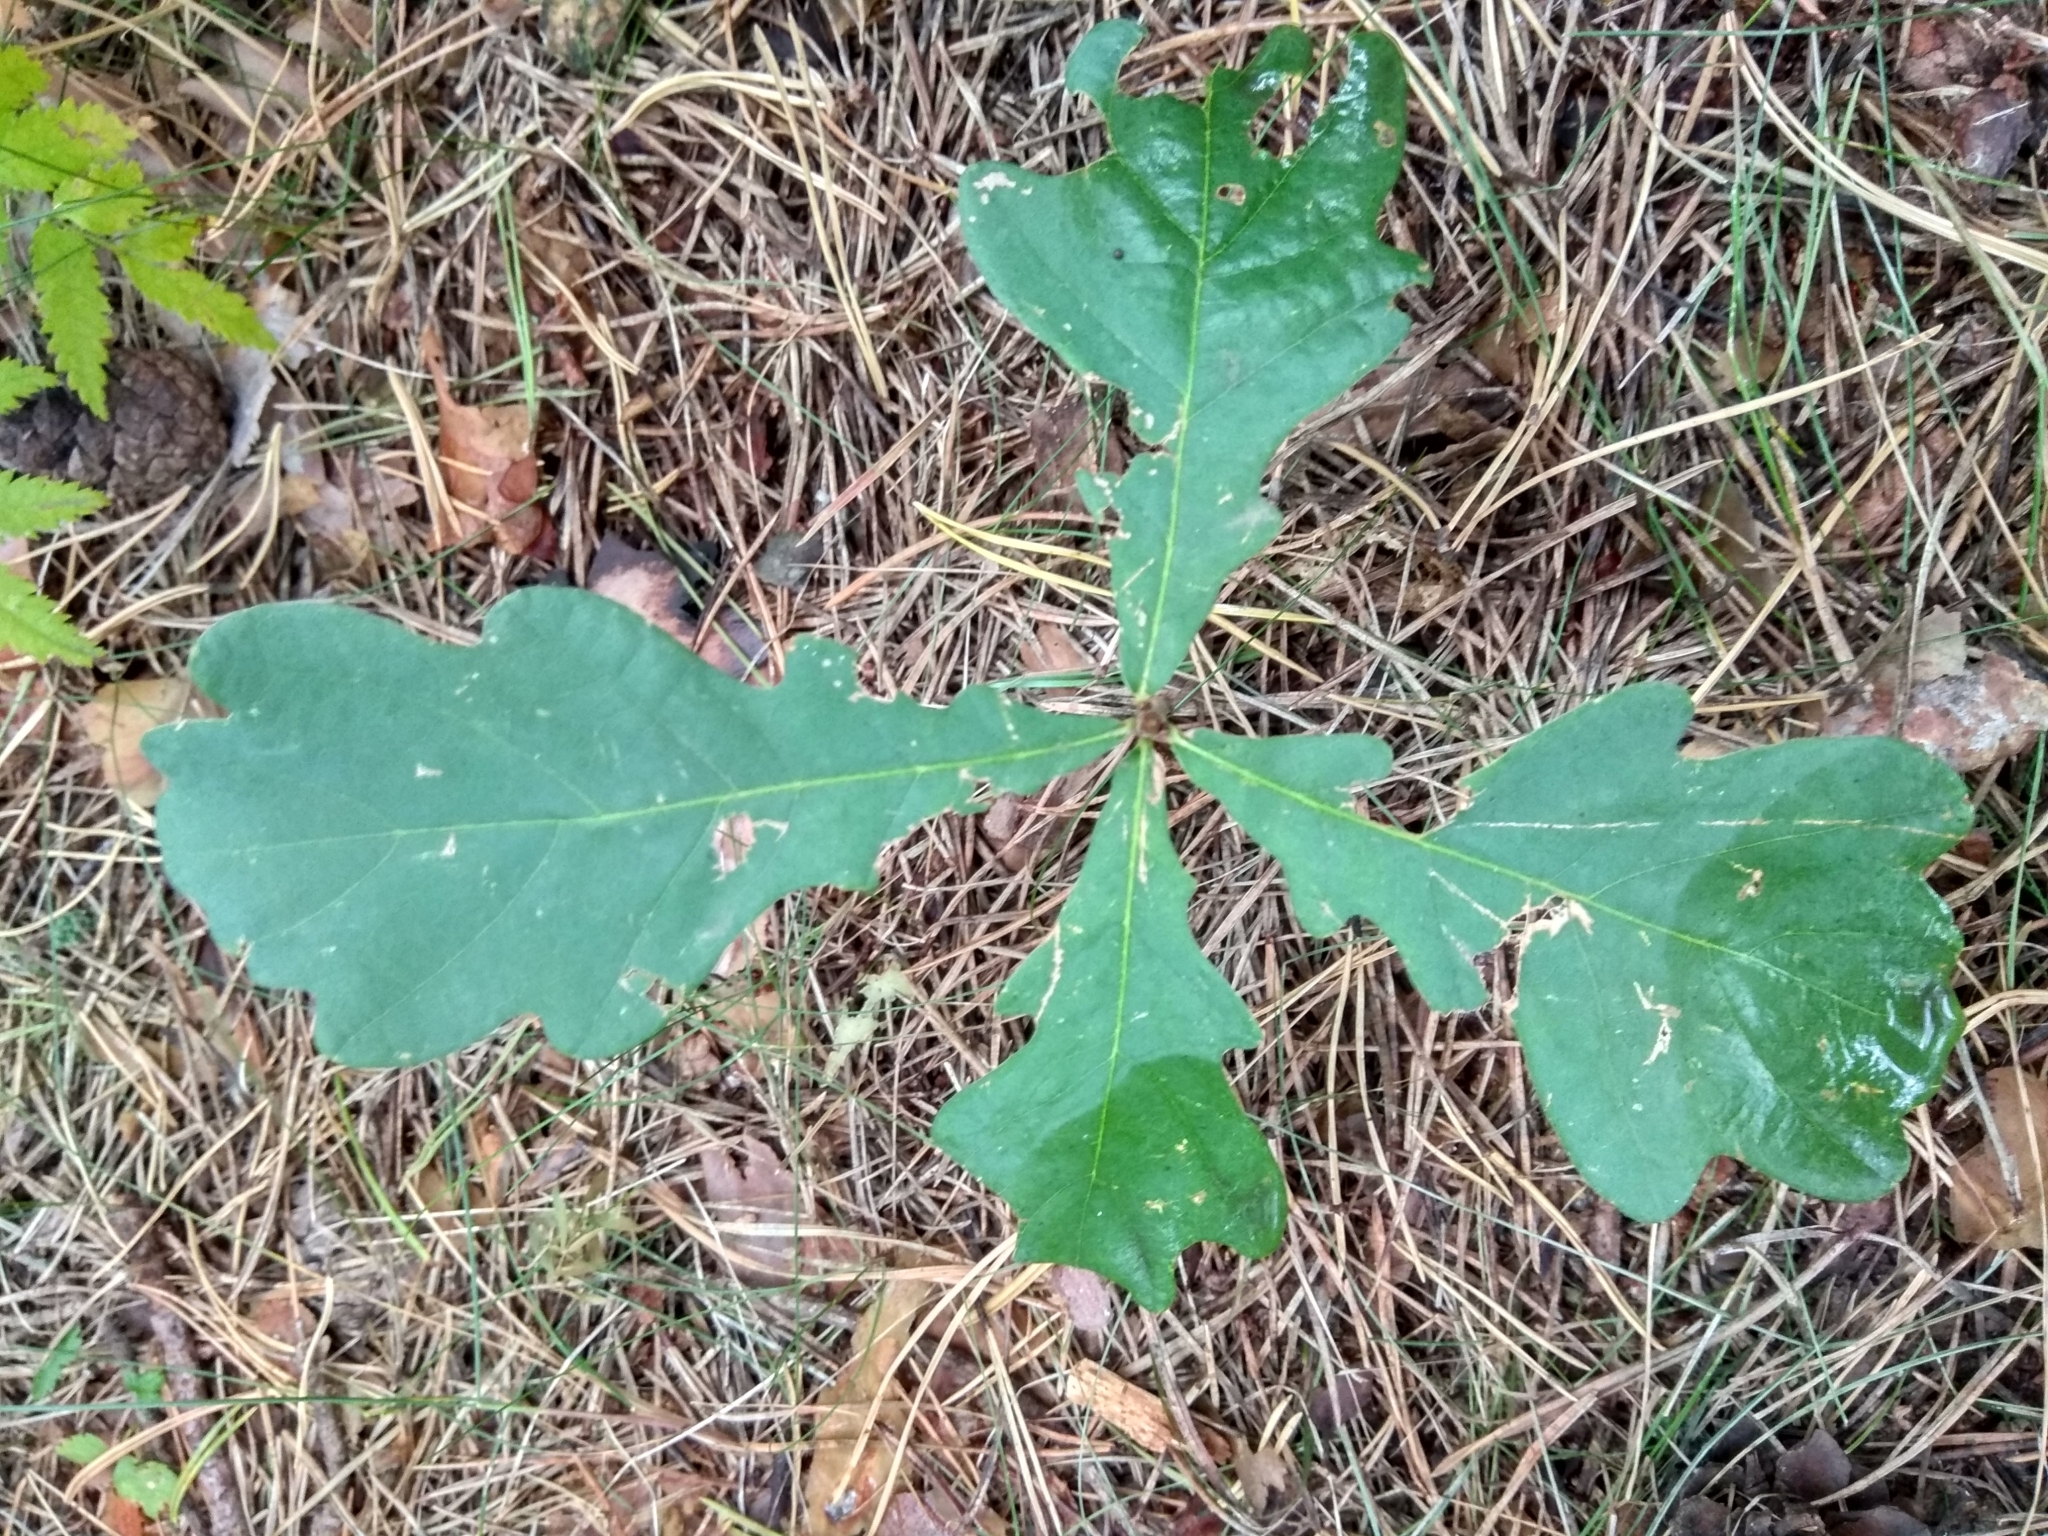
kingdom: Plantae
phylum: Tracheophyta
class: Magnoliopsida
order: Fagales
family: Fagaceae
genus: Quercus
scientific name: Quercus robur
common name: Pedunculate oak
